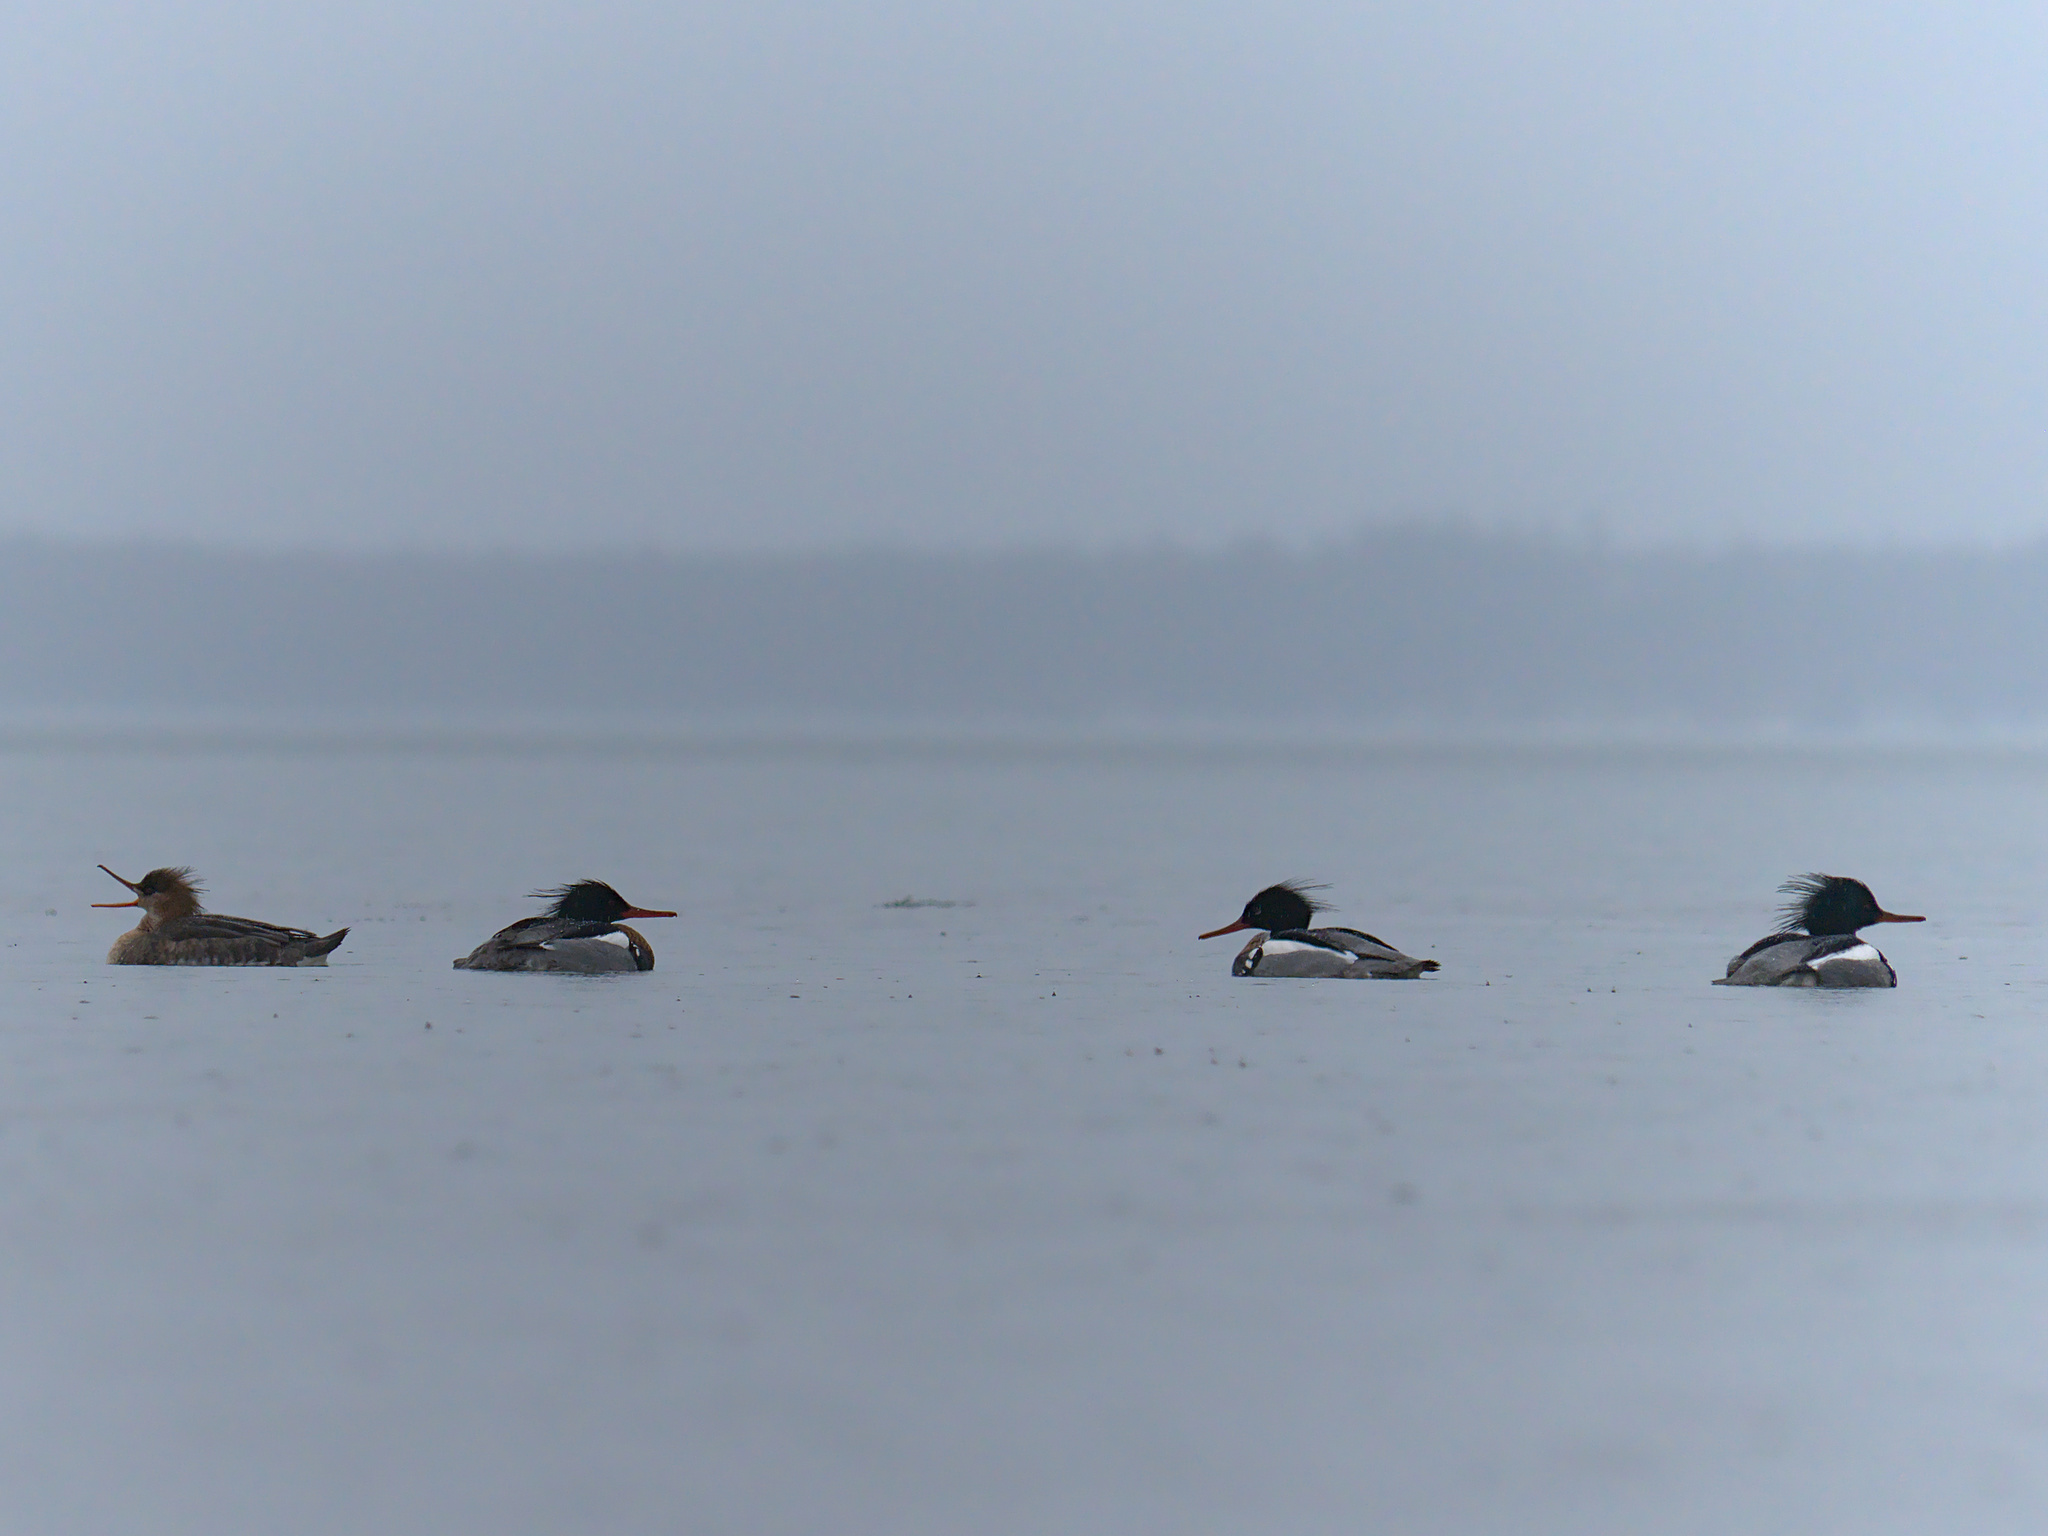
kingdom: Animalia
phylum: Chordata
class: Aves
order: Anseriformes
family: Anatidae
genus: Mergus
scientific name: Mergus serrator
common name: Red-breasted merganser
